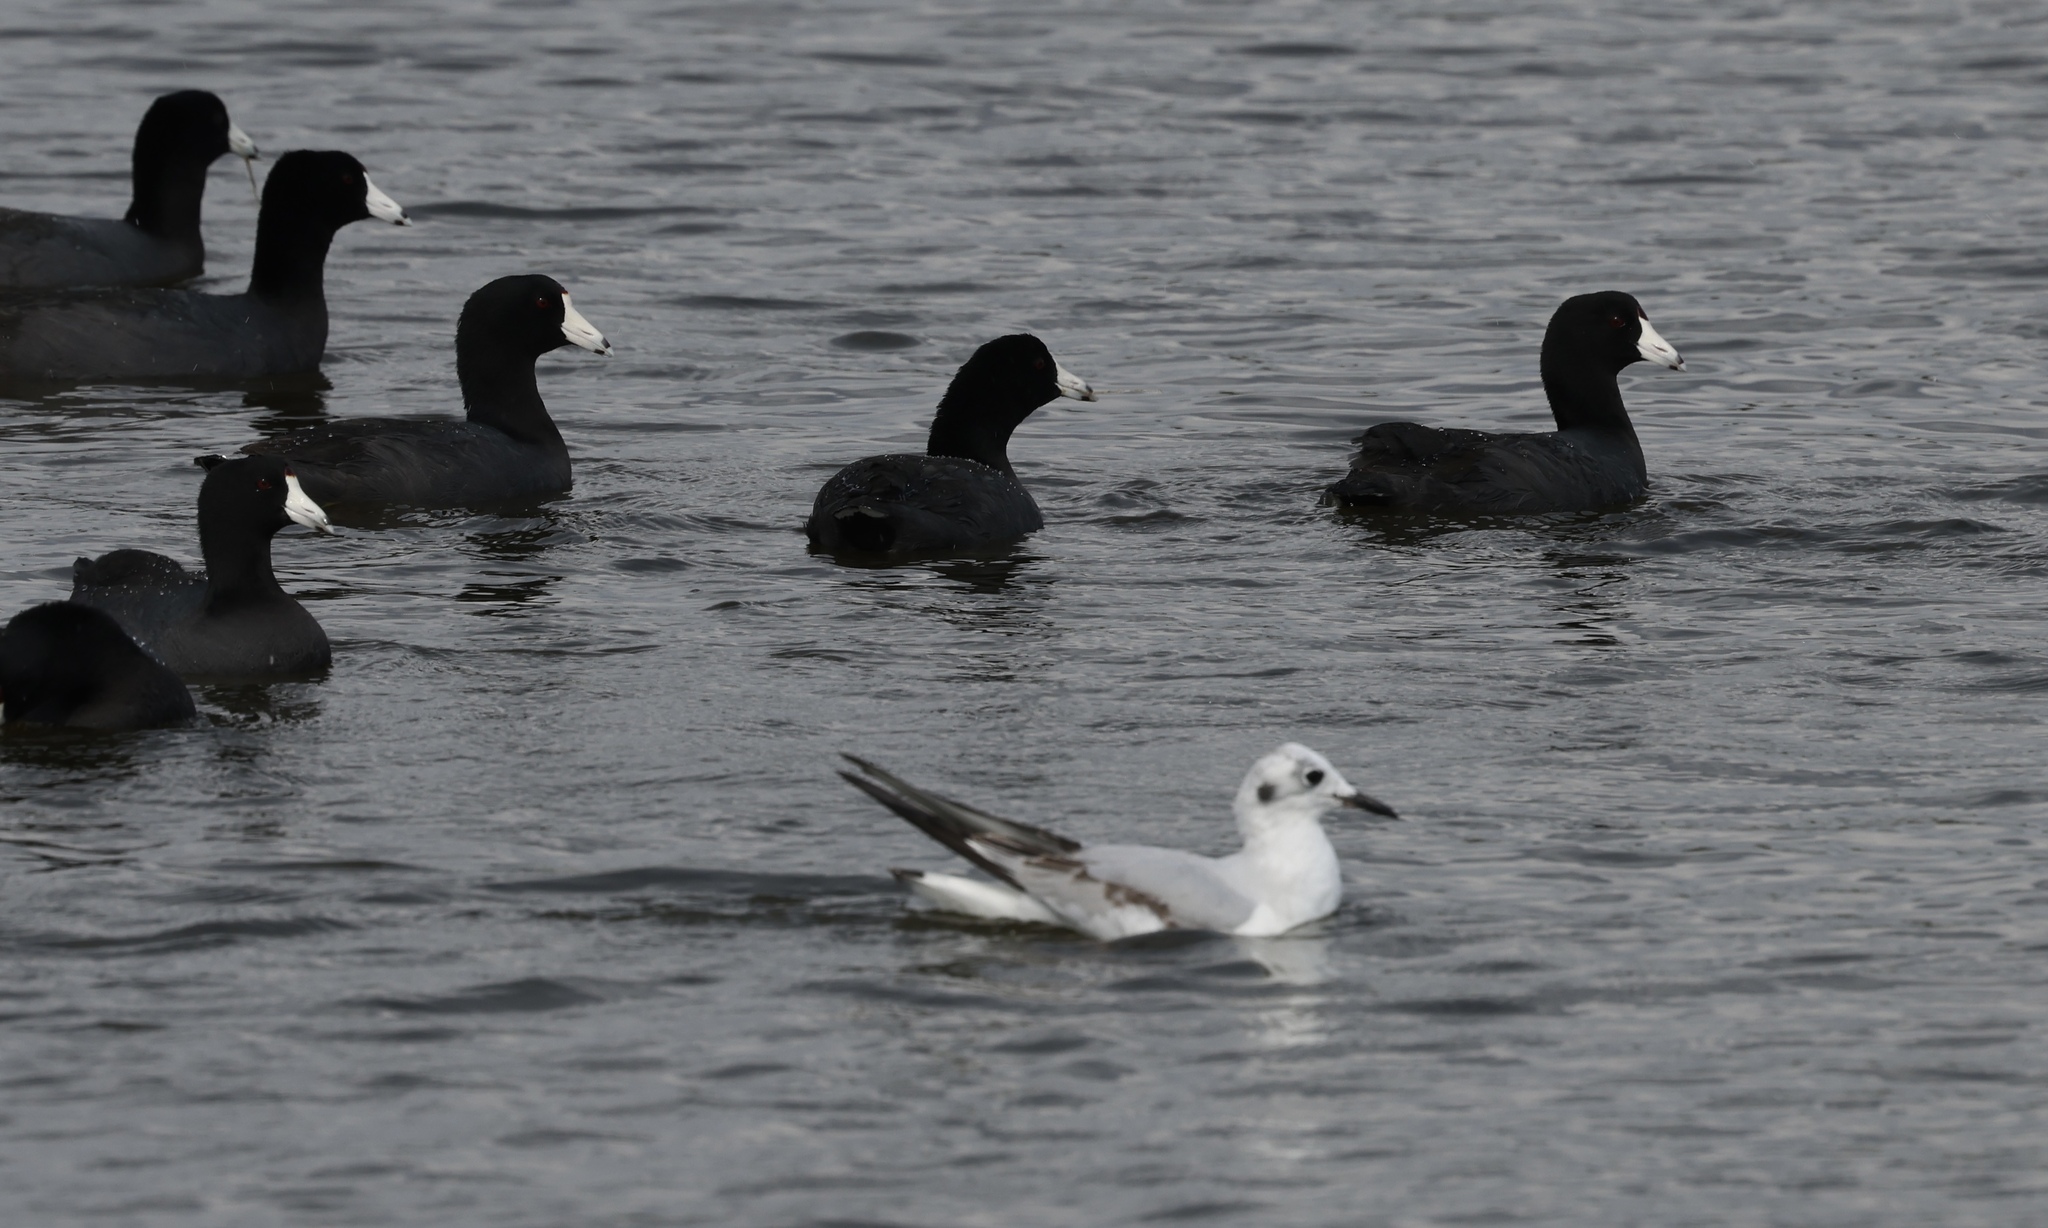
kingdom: Animalia
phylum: Chordata
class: Aves
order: Charadriiformes
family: Laridae
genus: Chroicocephalus
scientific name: Chroicocephalus philadelphia
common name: Bonaparte's gull
